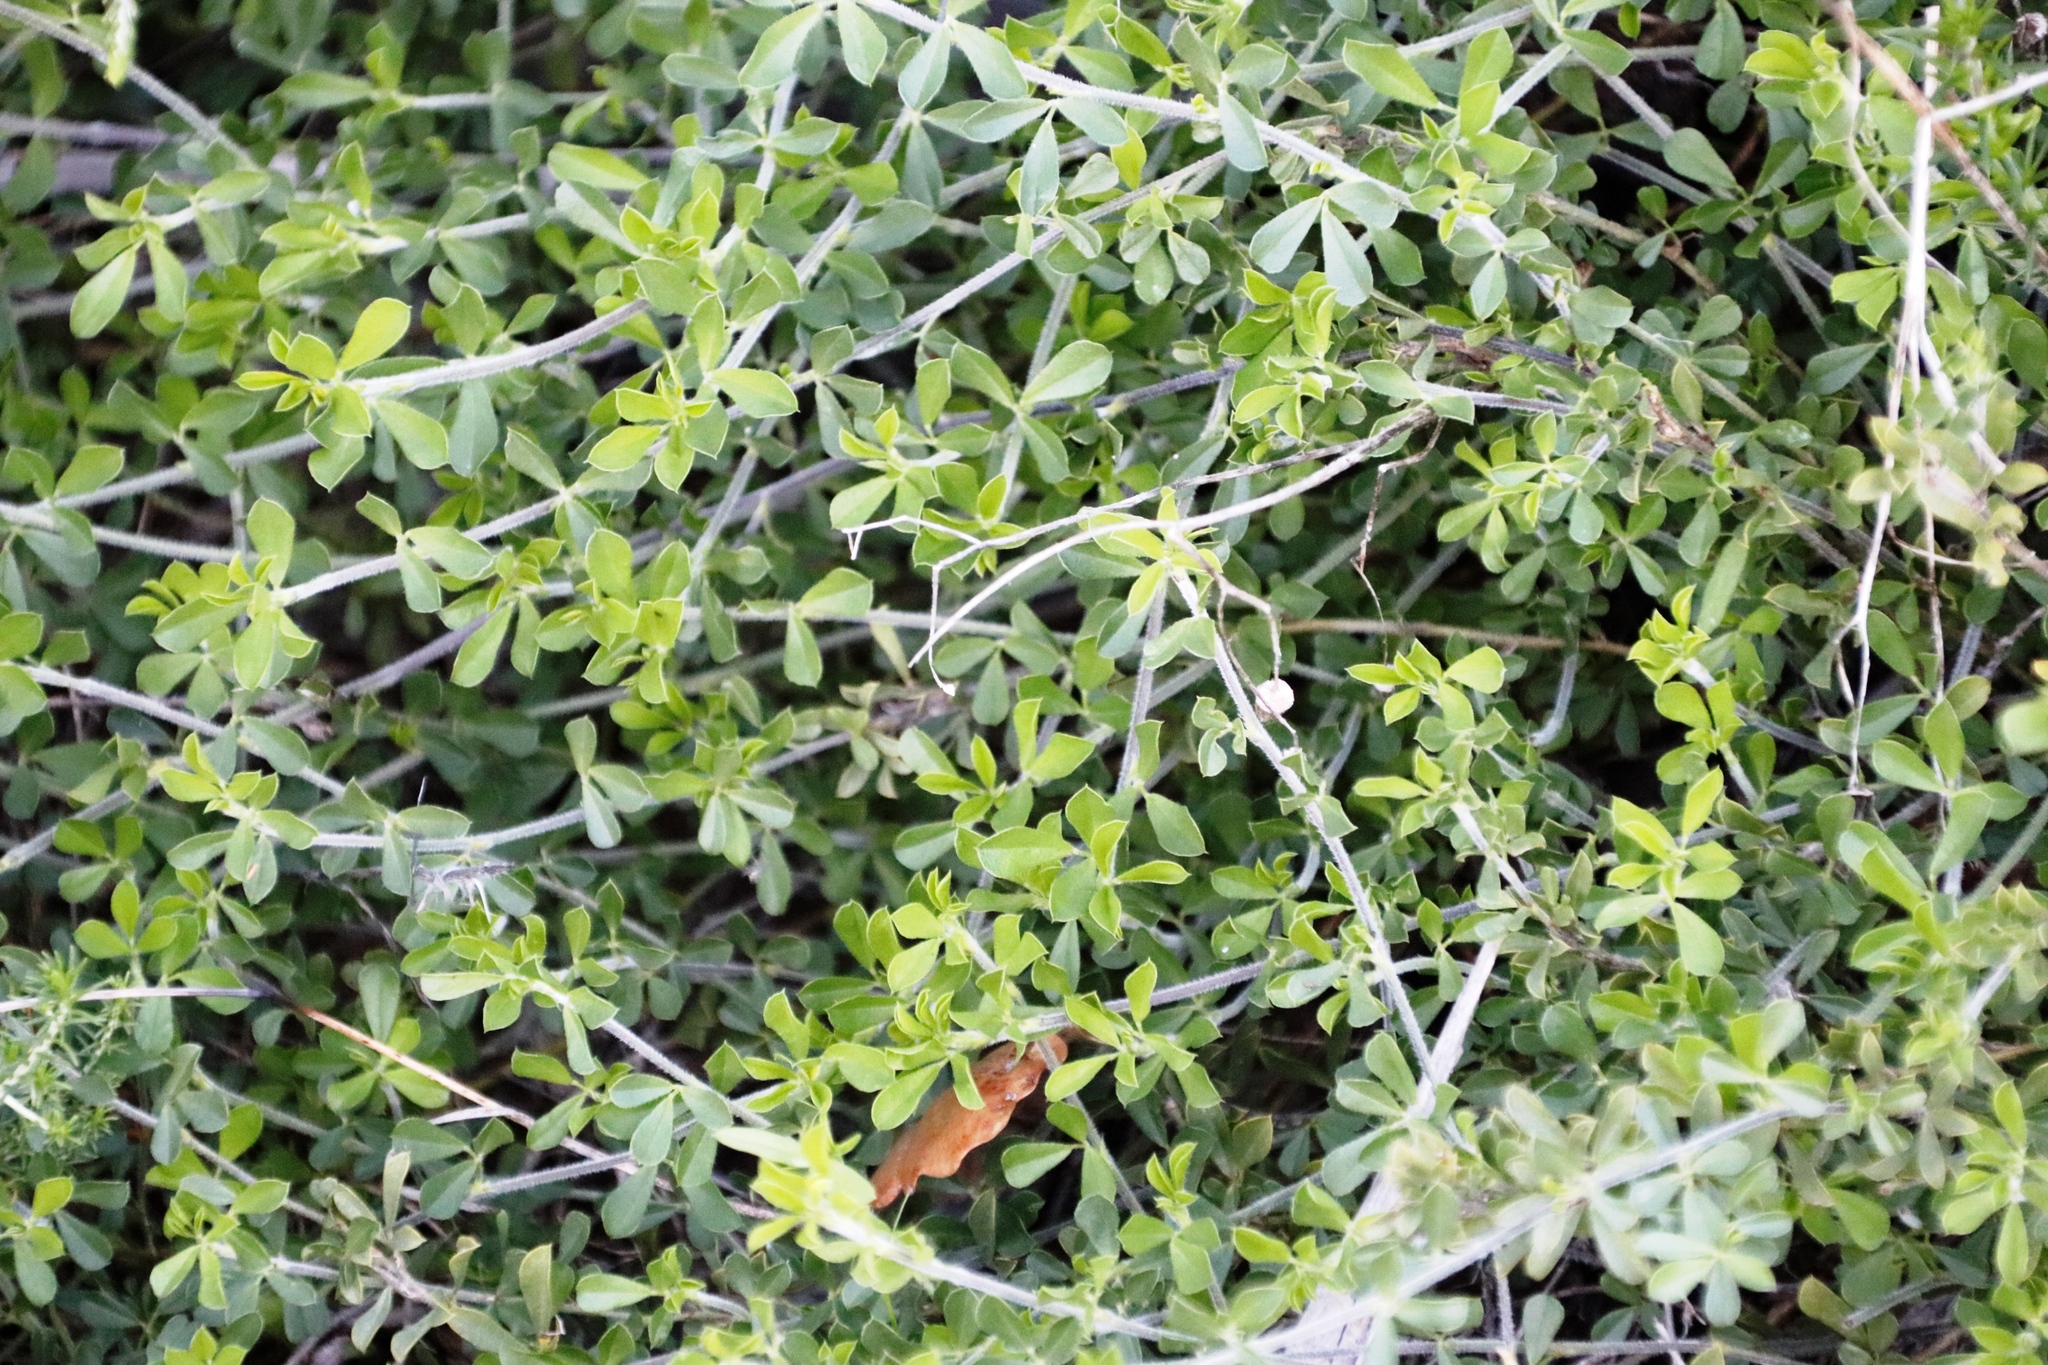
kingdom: Plantae
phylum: Tracheophyta
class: Magnoliopsida
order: Fabales
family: Fabaceae
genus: Psoralea
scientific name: Psoralea
